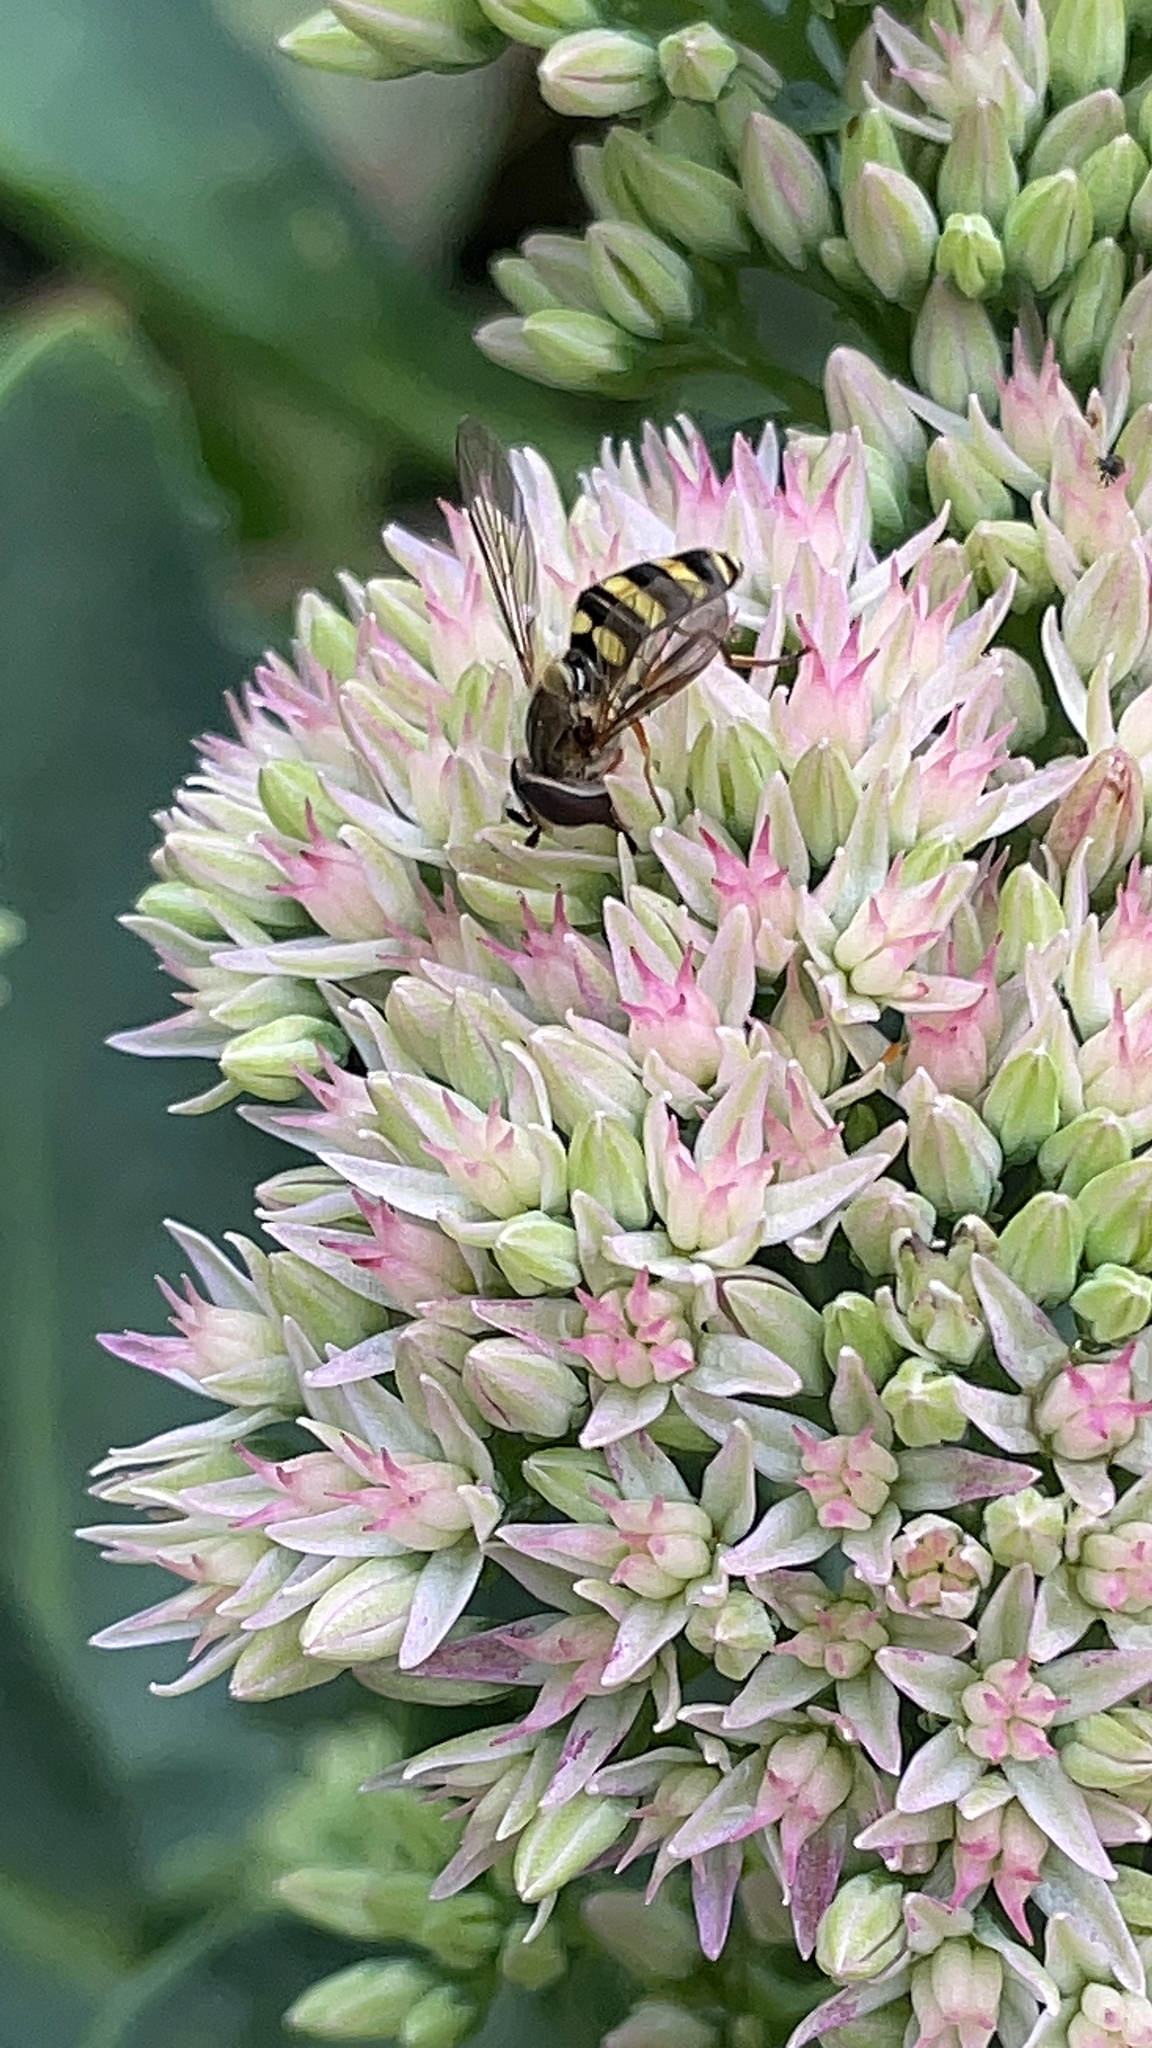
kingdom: Animalia
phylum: Arthropoda
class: Insecta
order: Diptera
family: Syrphidae
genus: Eupeodes
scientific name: Eupeodes
